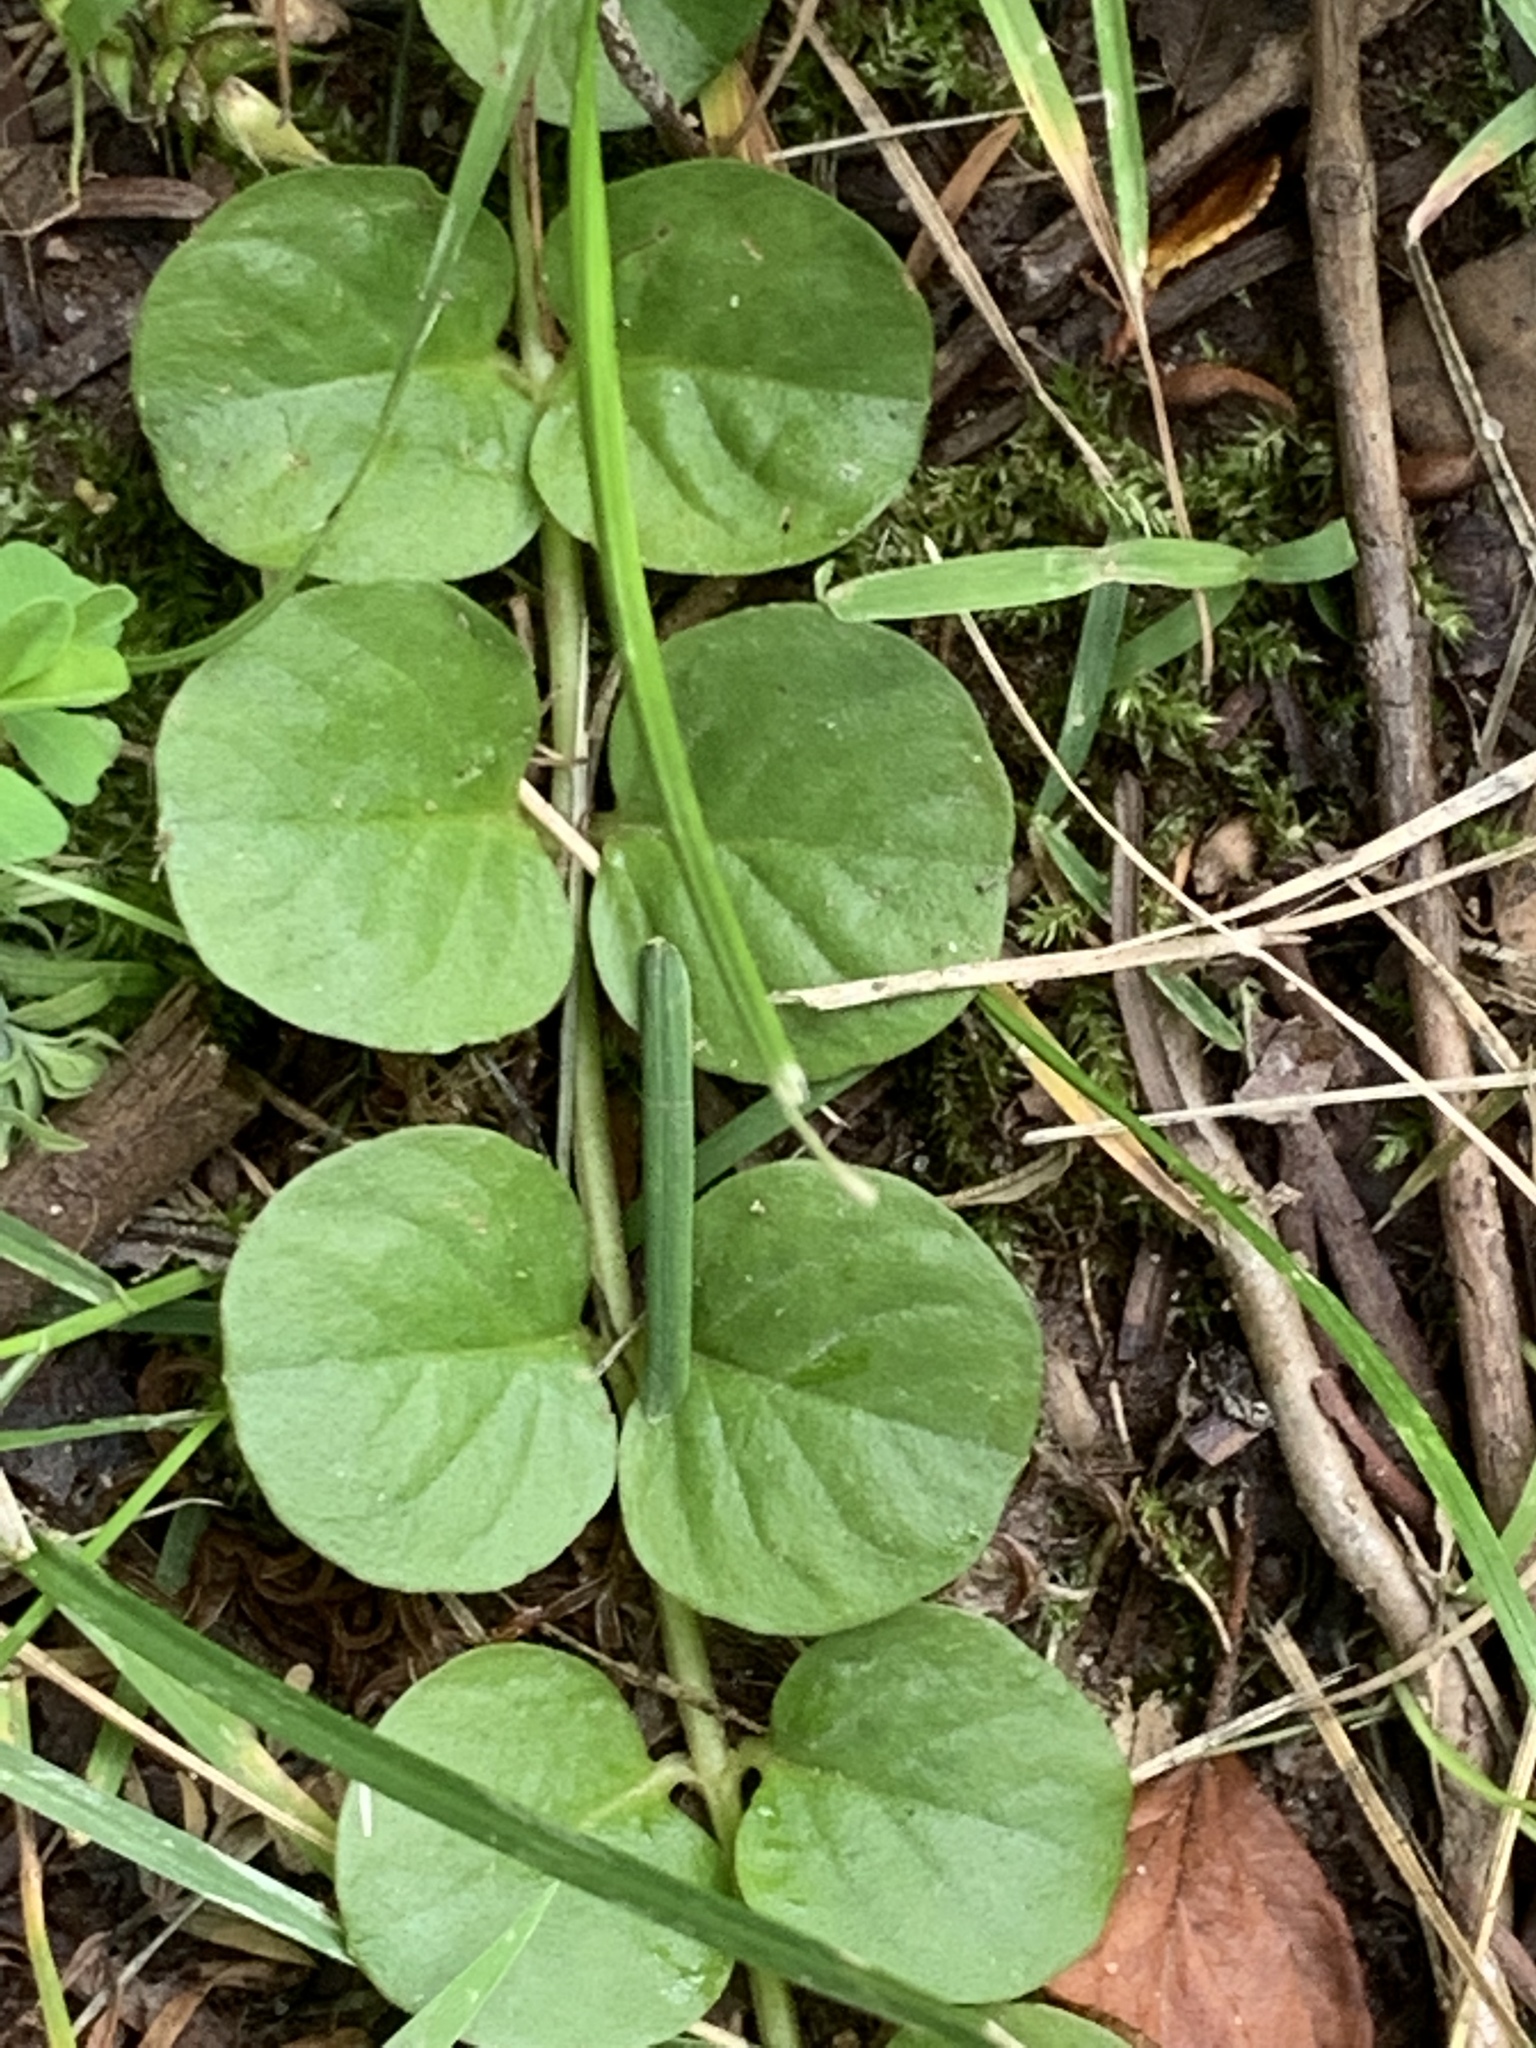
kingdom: Plantae
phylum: Tracheophyta
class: Magnoliopsida
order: Ericales
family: Primulaceae
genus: Lysimachia
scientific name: Lysimachia nummularia
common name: Moneywort
